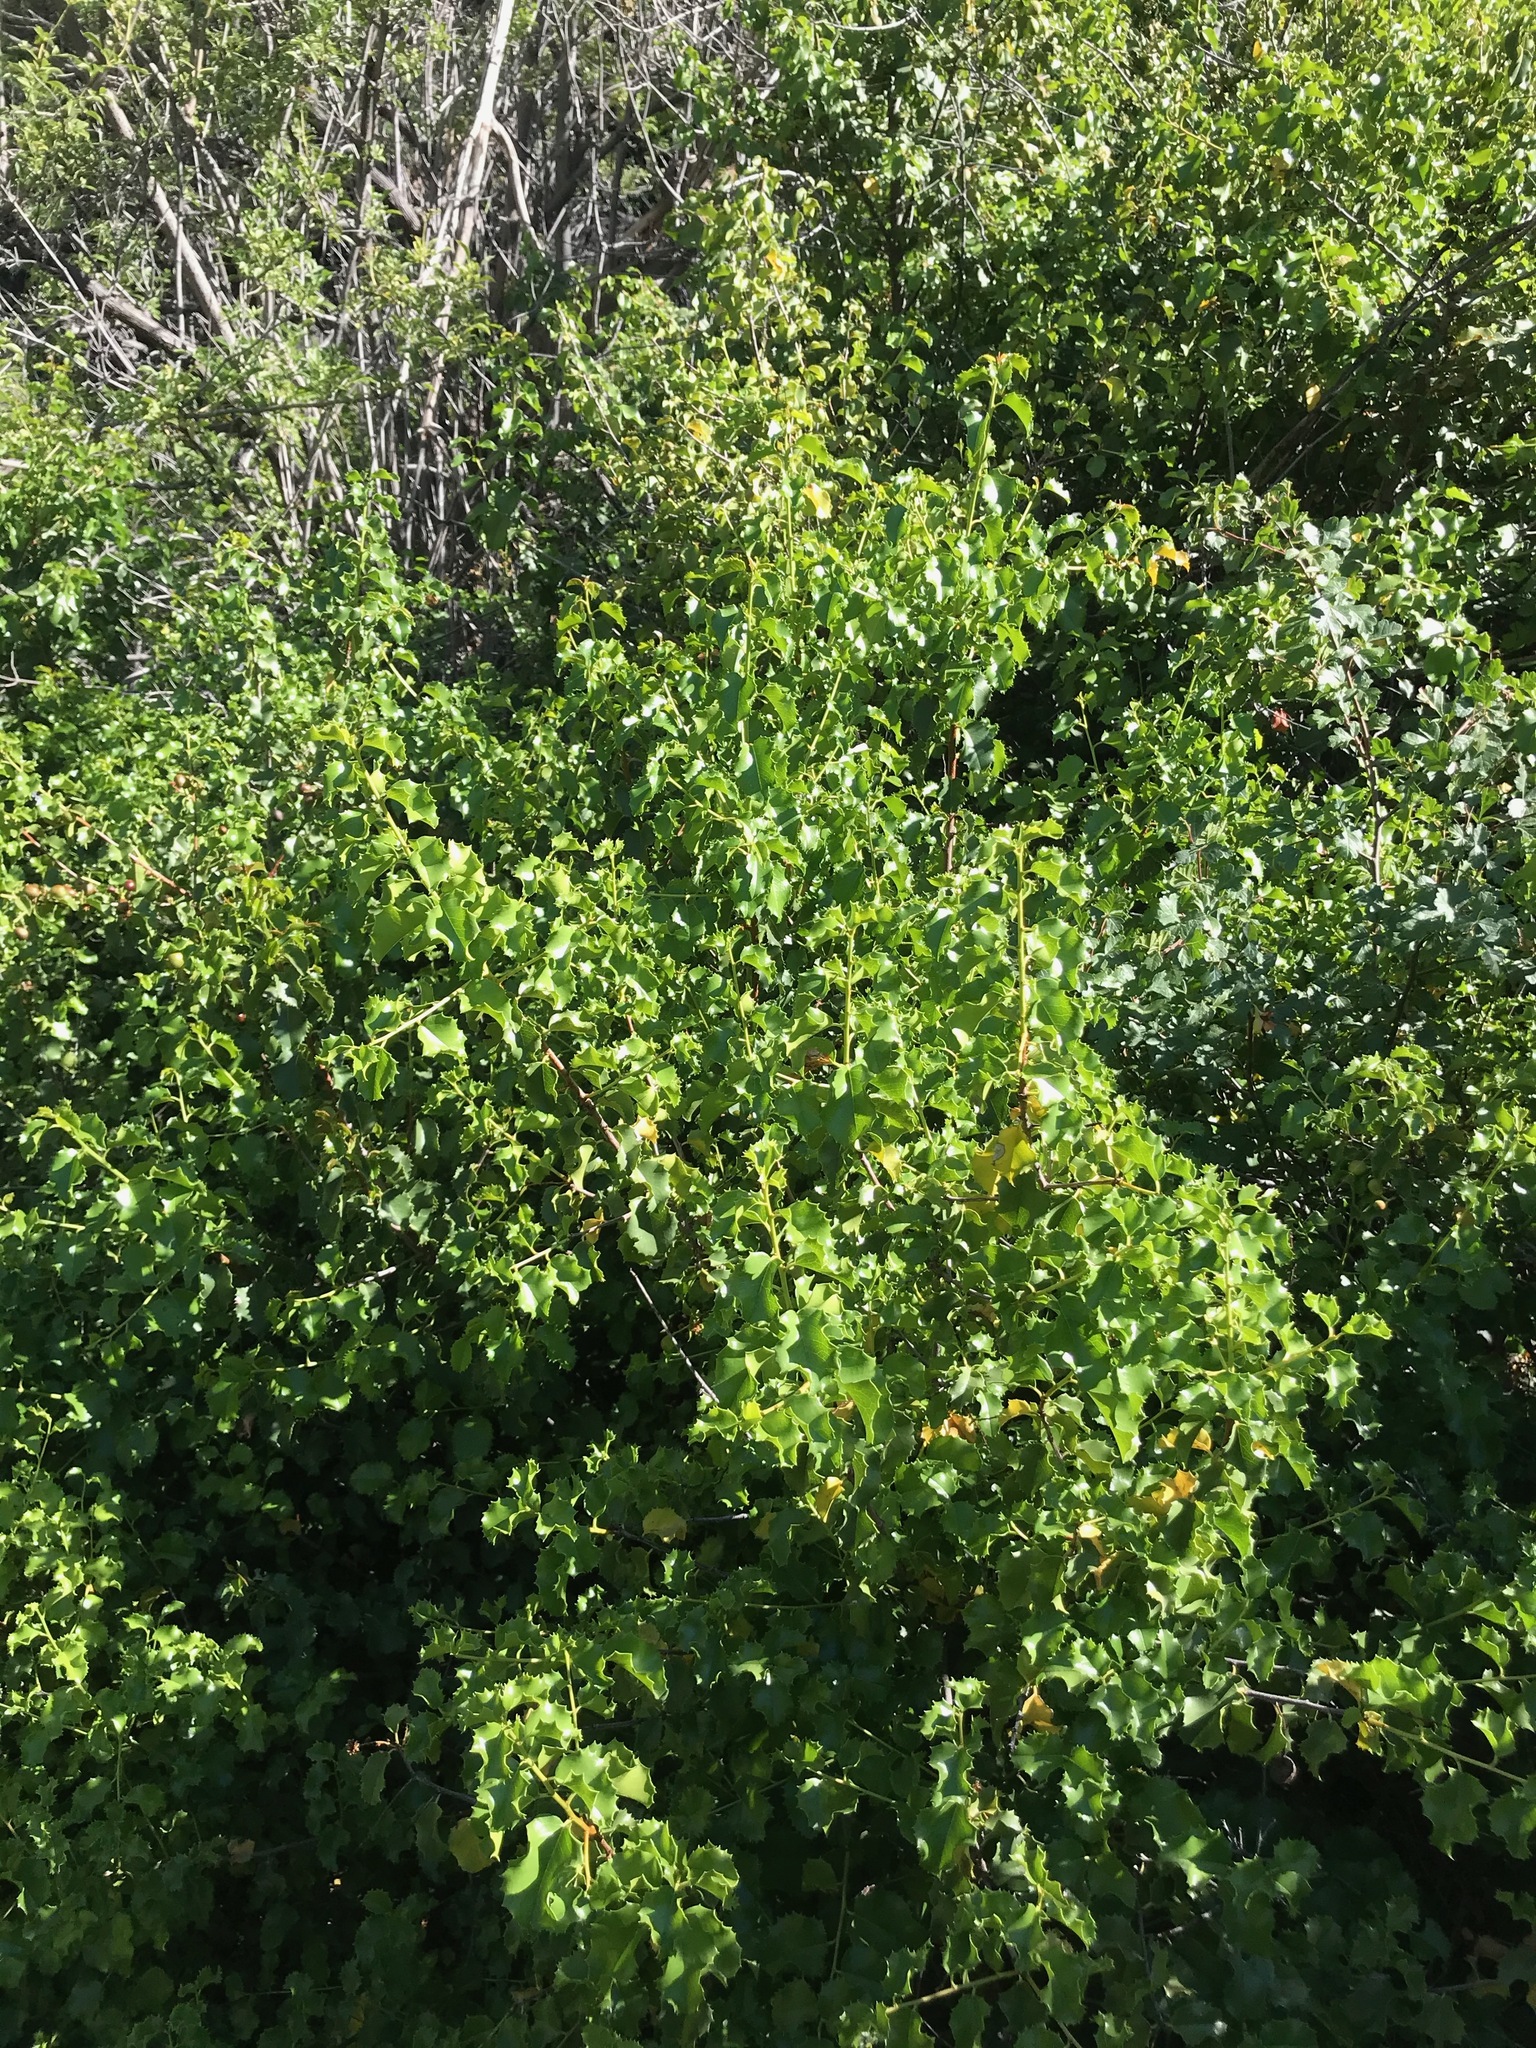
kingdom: Plantae
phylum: Tracheophyta
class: Magnoliopsida
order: Rosales
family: Rosaceae
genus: Prunus
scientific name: Prunus ilicifolia
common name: Hollyleaf cherry
